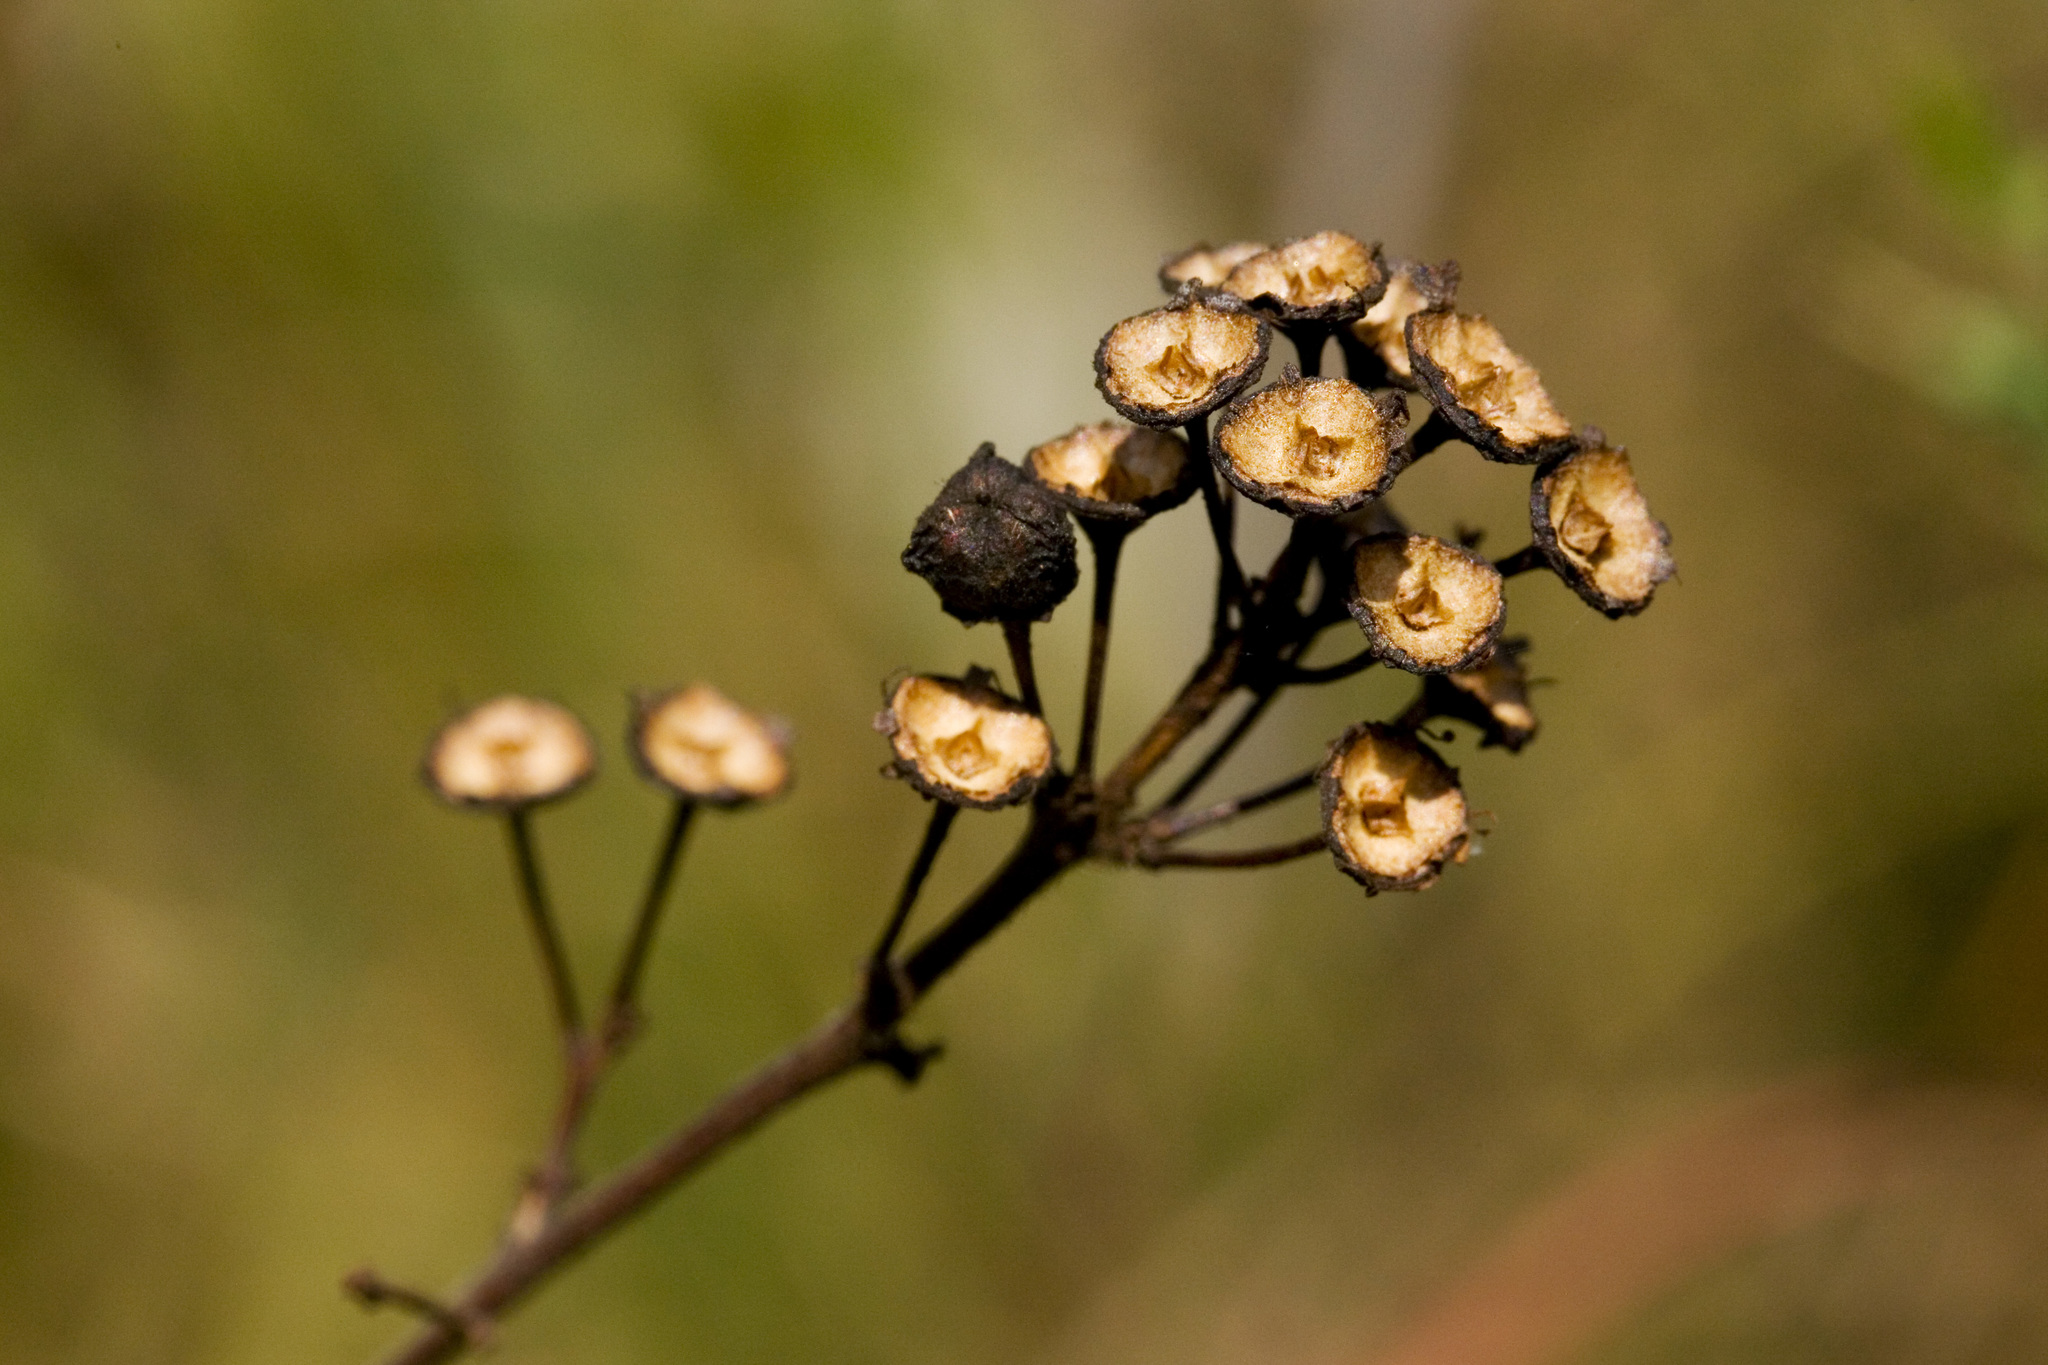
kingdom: Plantae
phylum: Tracheophyta
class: Magnoliopsida
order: Rosales
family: Rhamnaceae
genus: Ceanothus
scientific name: Ceanothus americanus
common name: Redroot
